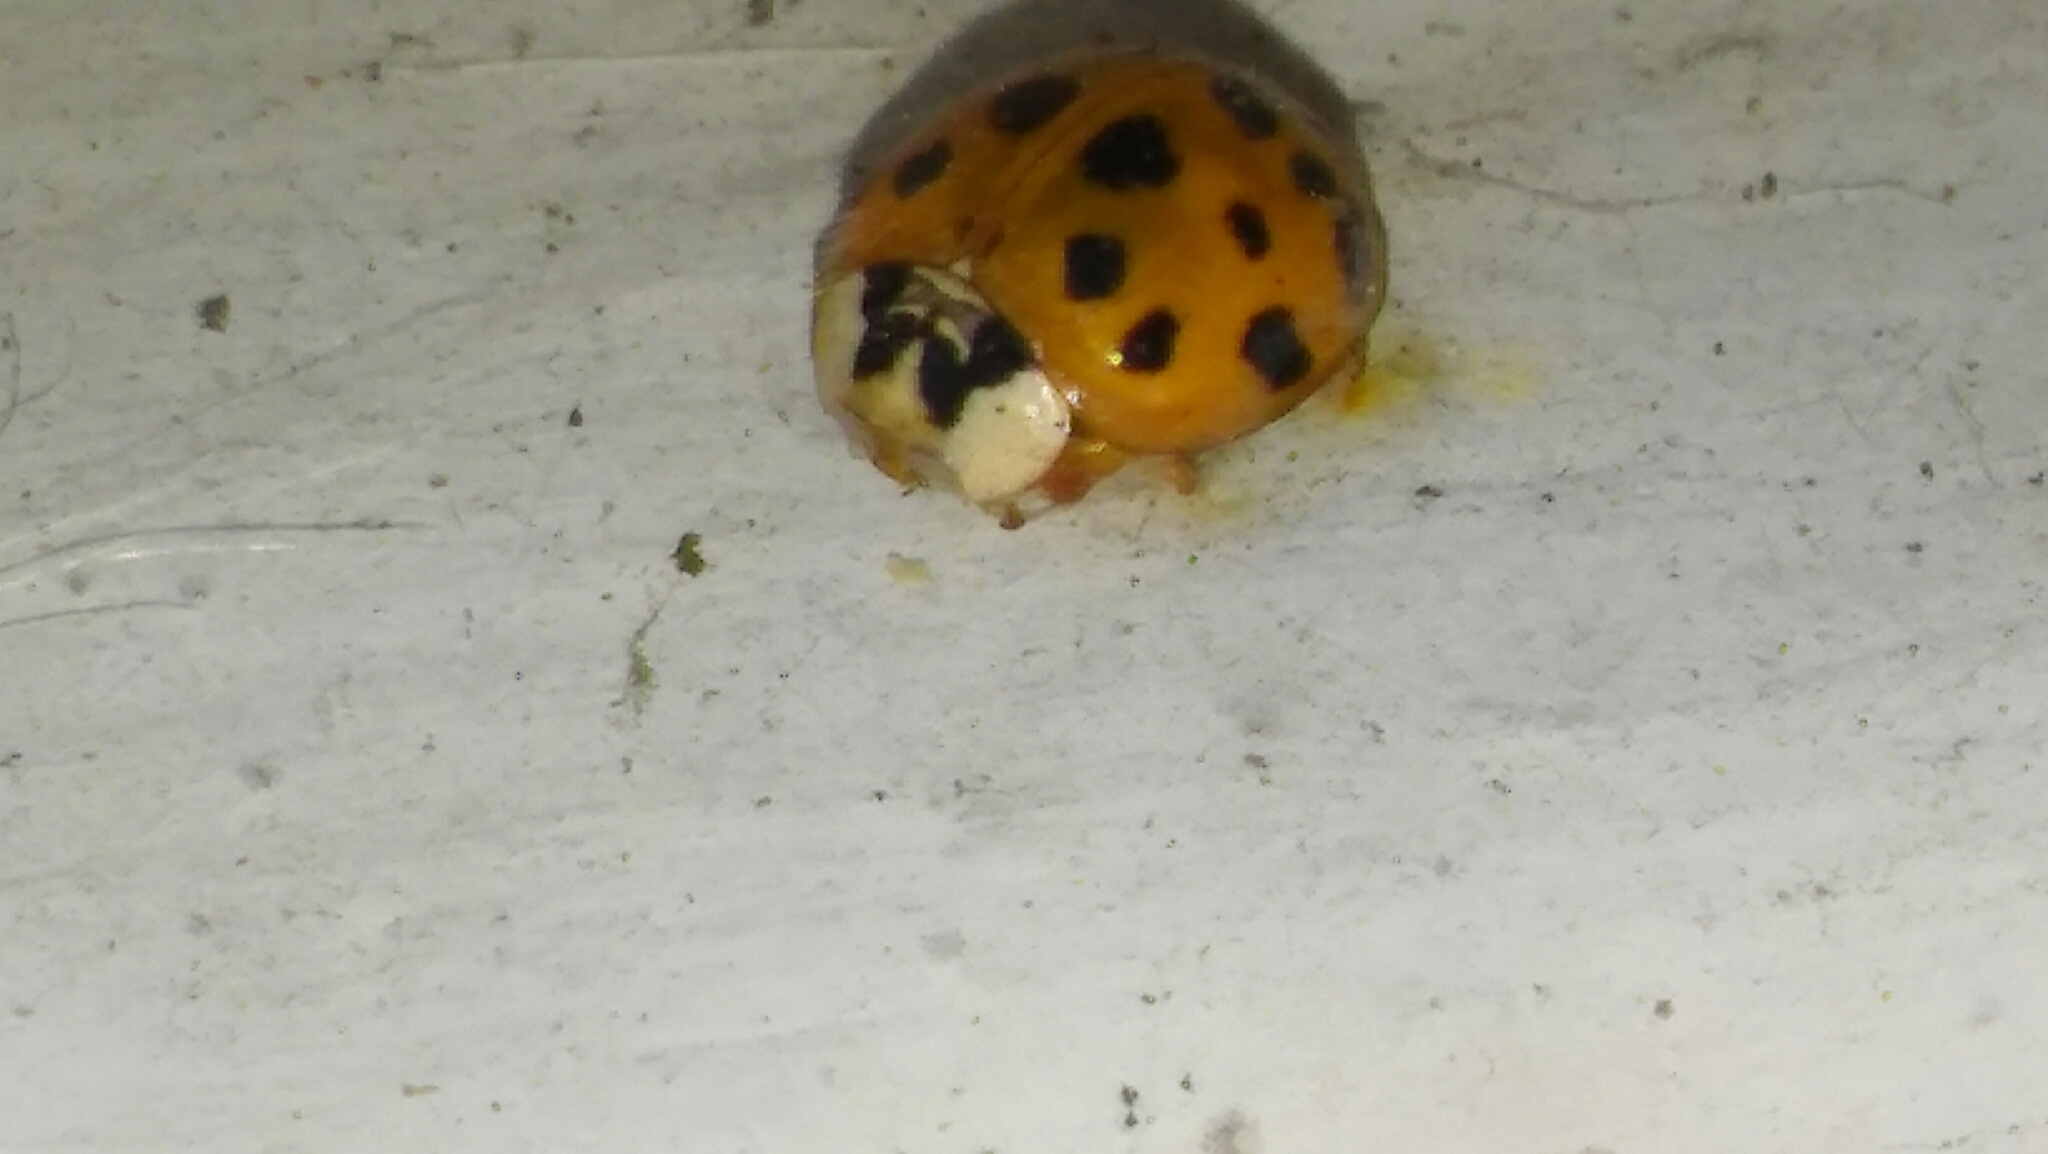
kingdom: Animalia
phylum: Arthropoda
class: Insecta
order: Coleoptera
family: Coccinellidae
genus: Harmonia
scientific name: Harmonia axyridis
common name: Harlequin ladybird
